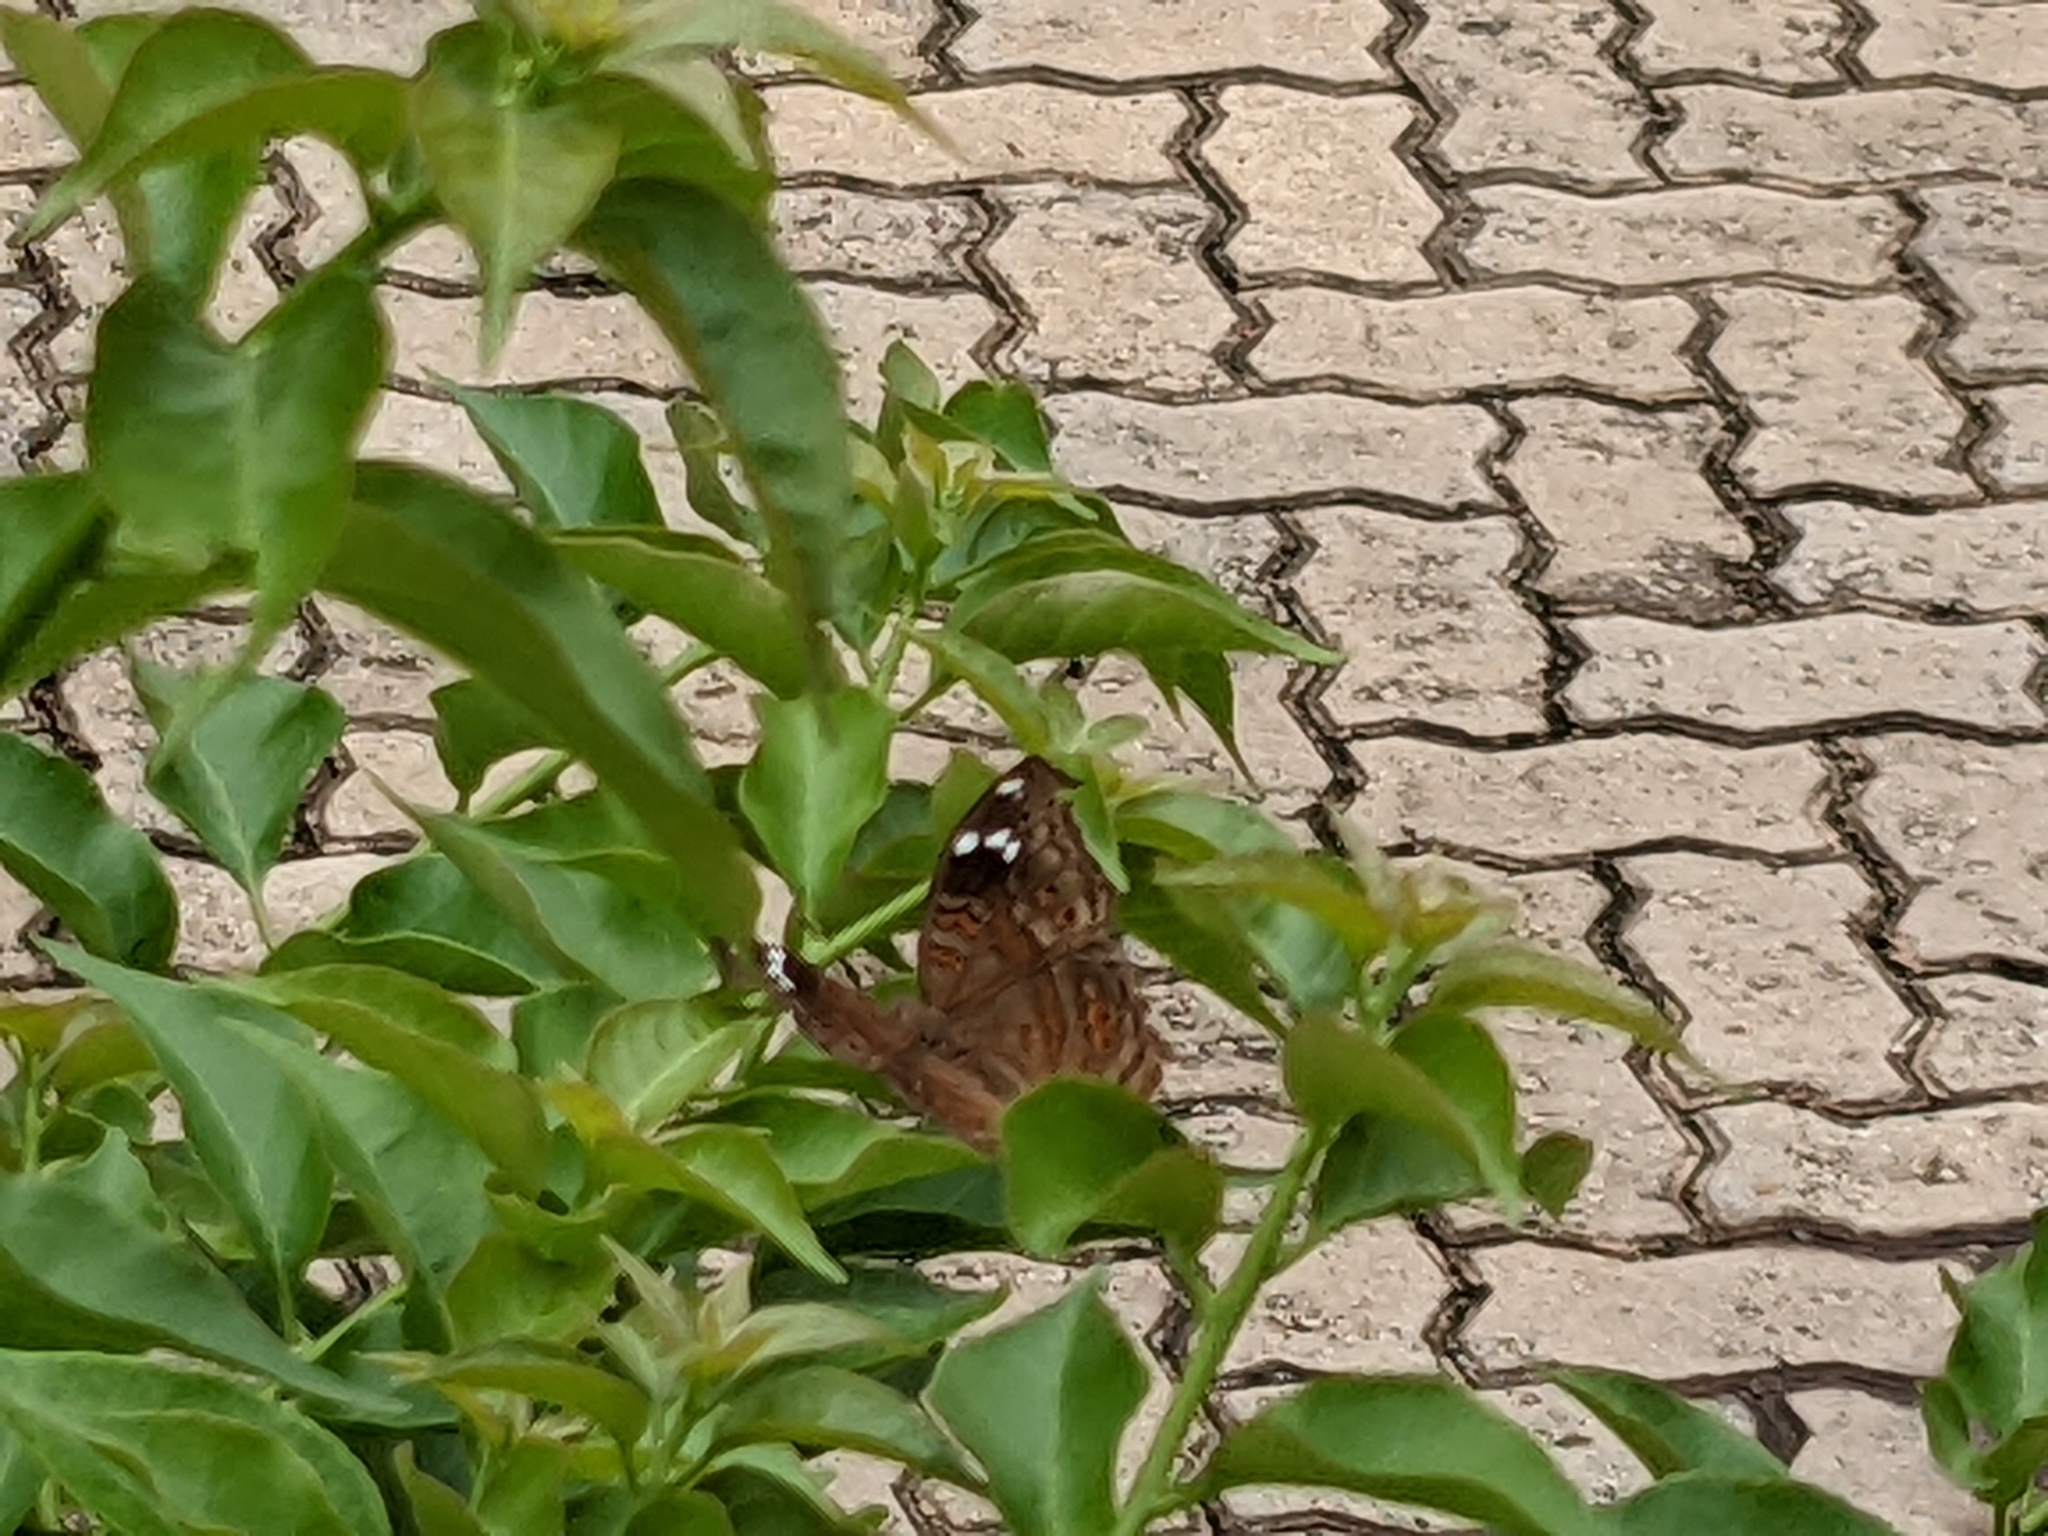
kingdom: Animalia
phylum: Arthropoda
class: Insecta
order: Lepidoptera
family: Nymphalidae
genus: Junonia
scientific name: Junonia natalica
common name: Brown pansy
